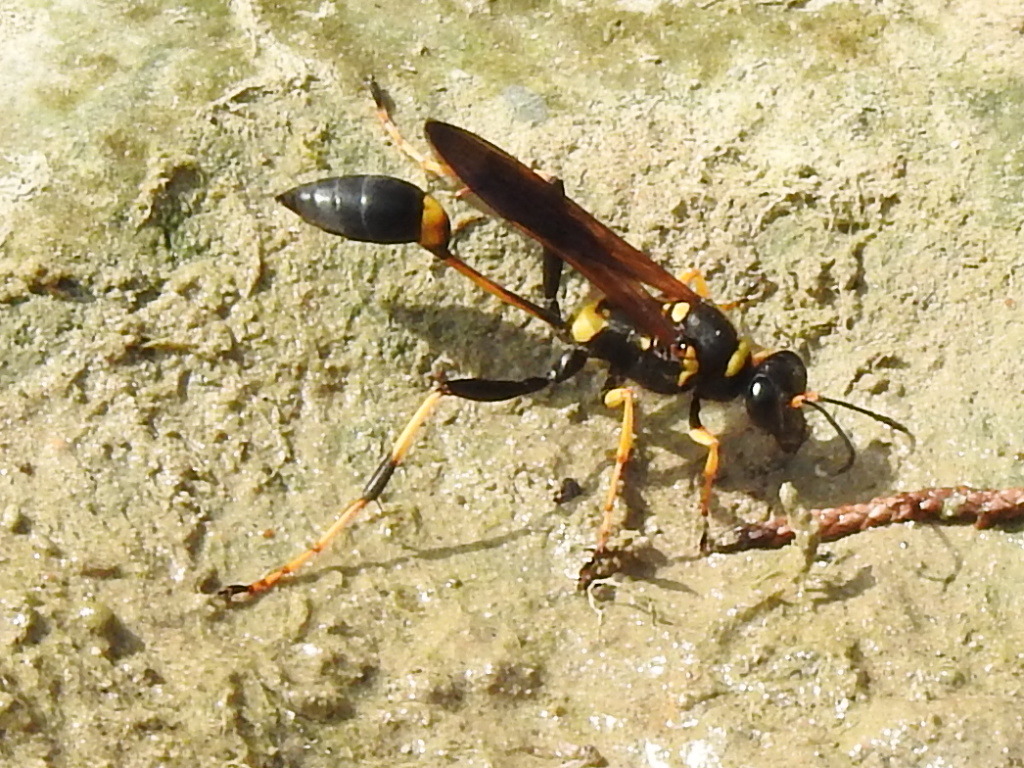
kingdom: Animalia
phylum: Arthropoda
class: Insecta
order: Hymenoptera
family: Sphecidae
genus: Sceliphron
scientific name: Sceliphron caementarium
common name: Mud dauber
